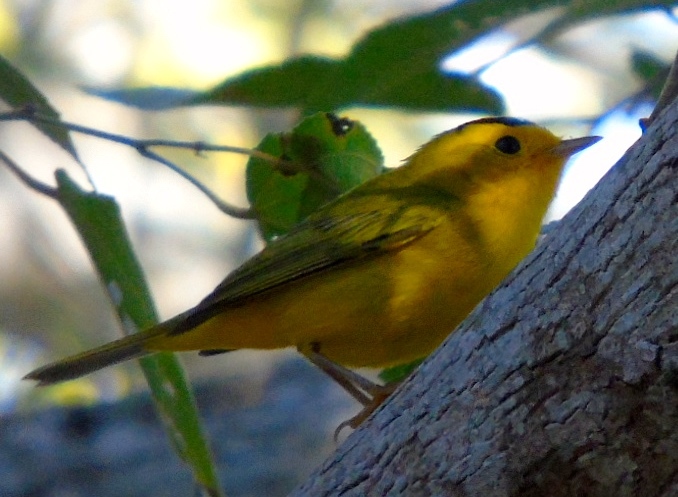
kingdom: Animalia
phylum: Chordata
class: Aves
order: Passeriformes
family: Parulidae
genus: Cardellina
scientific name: Cardellina pusilla
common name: Wilson's warbler
